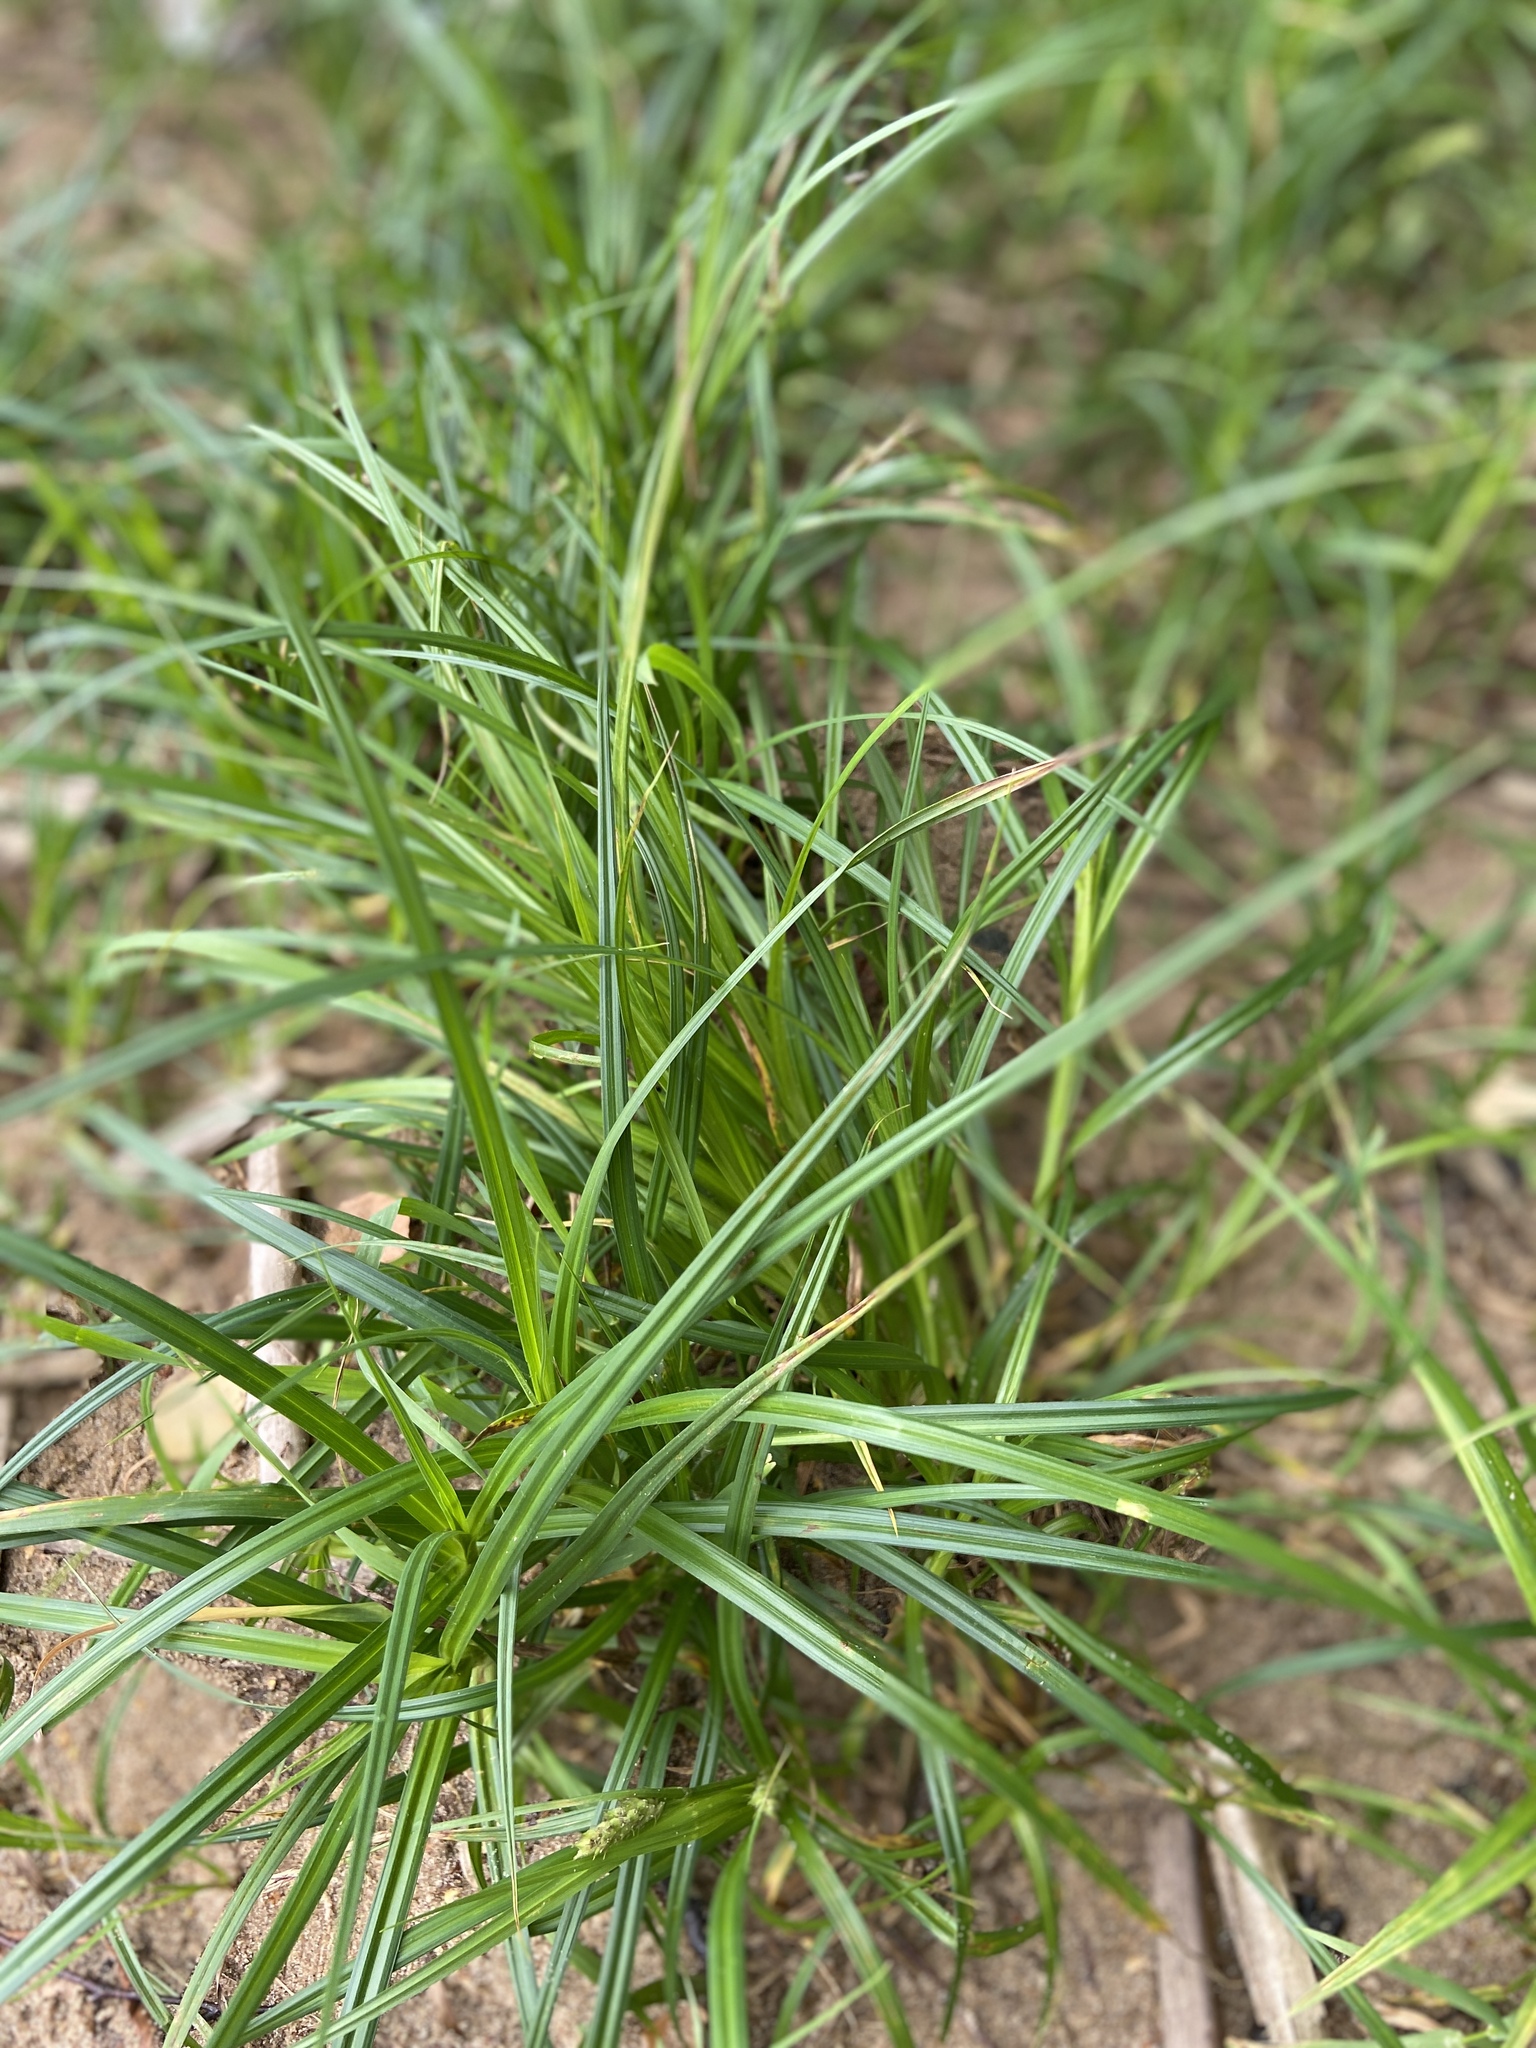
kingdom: Plantae
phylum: Tracheophyta
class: Liliopsida
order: Poales
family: Cyperaceae
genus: Carex
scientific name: Carex hirta
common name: Hairy sedge
